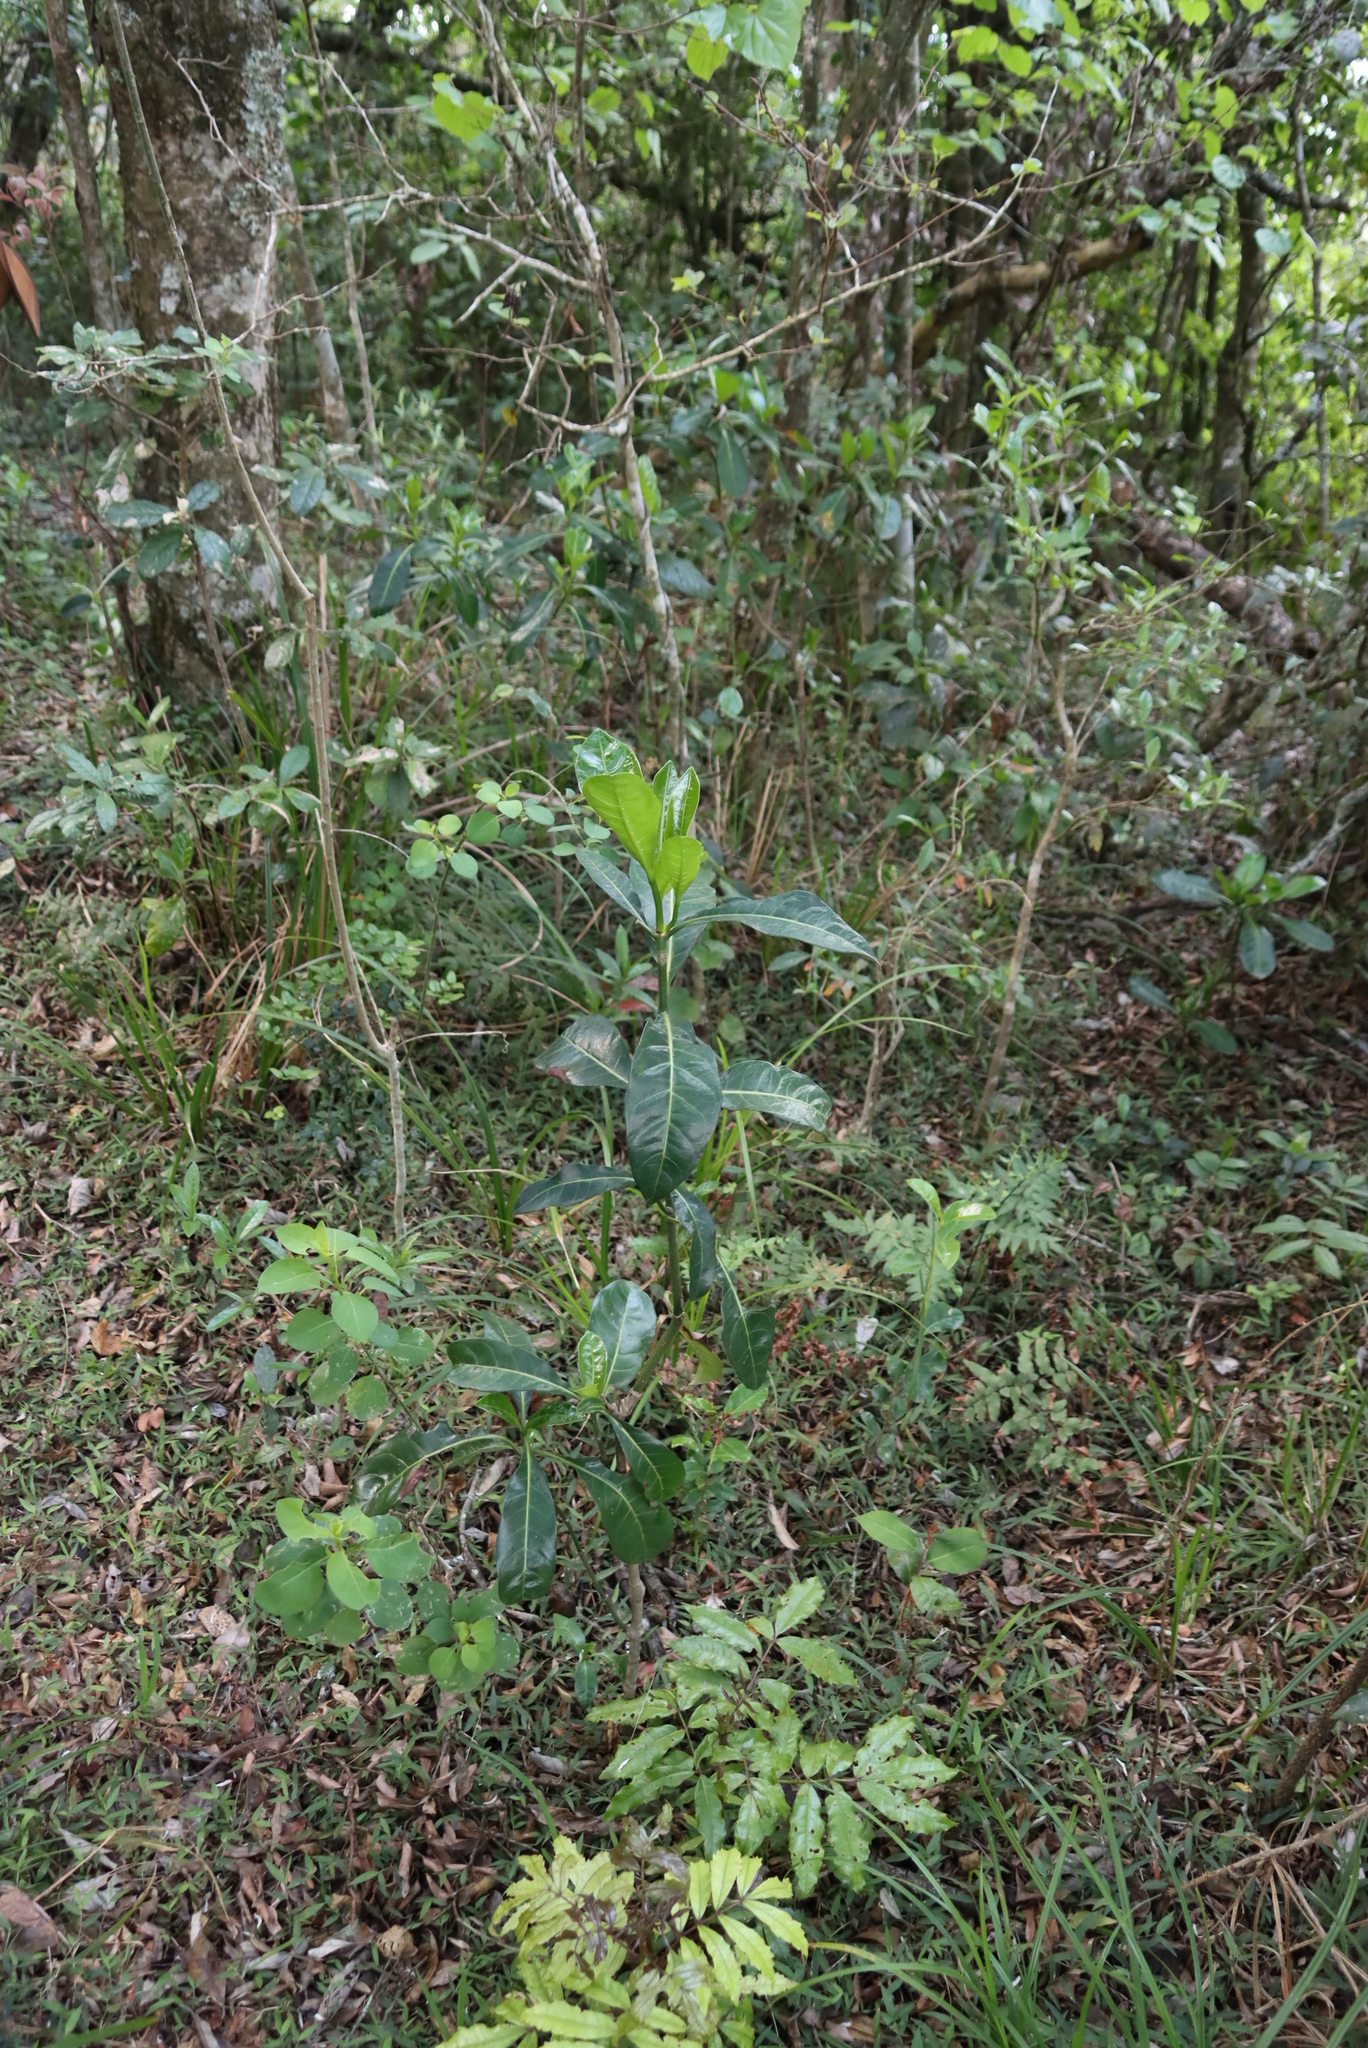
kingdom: Plantae
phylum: Tracheophyta
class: Magnoliopsida
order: Gentianales
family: Rubiaceae
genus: Psychotria
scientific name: Psychotria capensis
